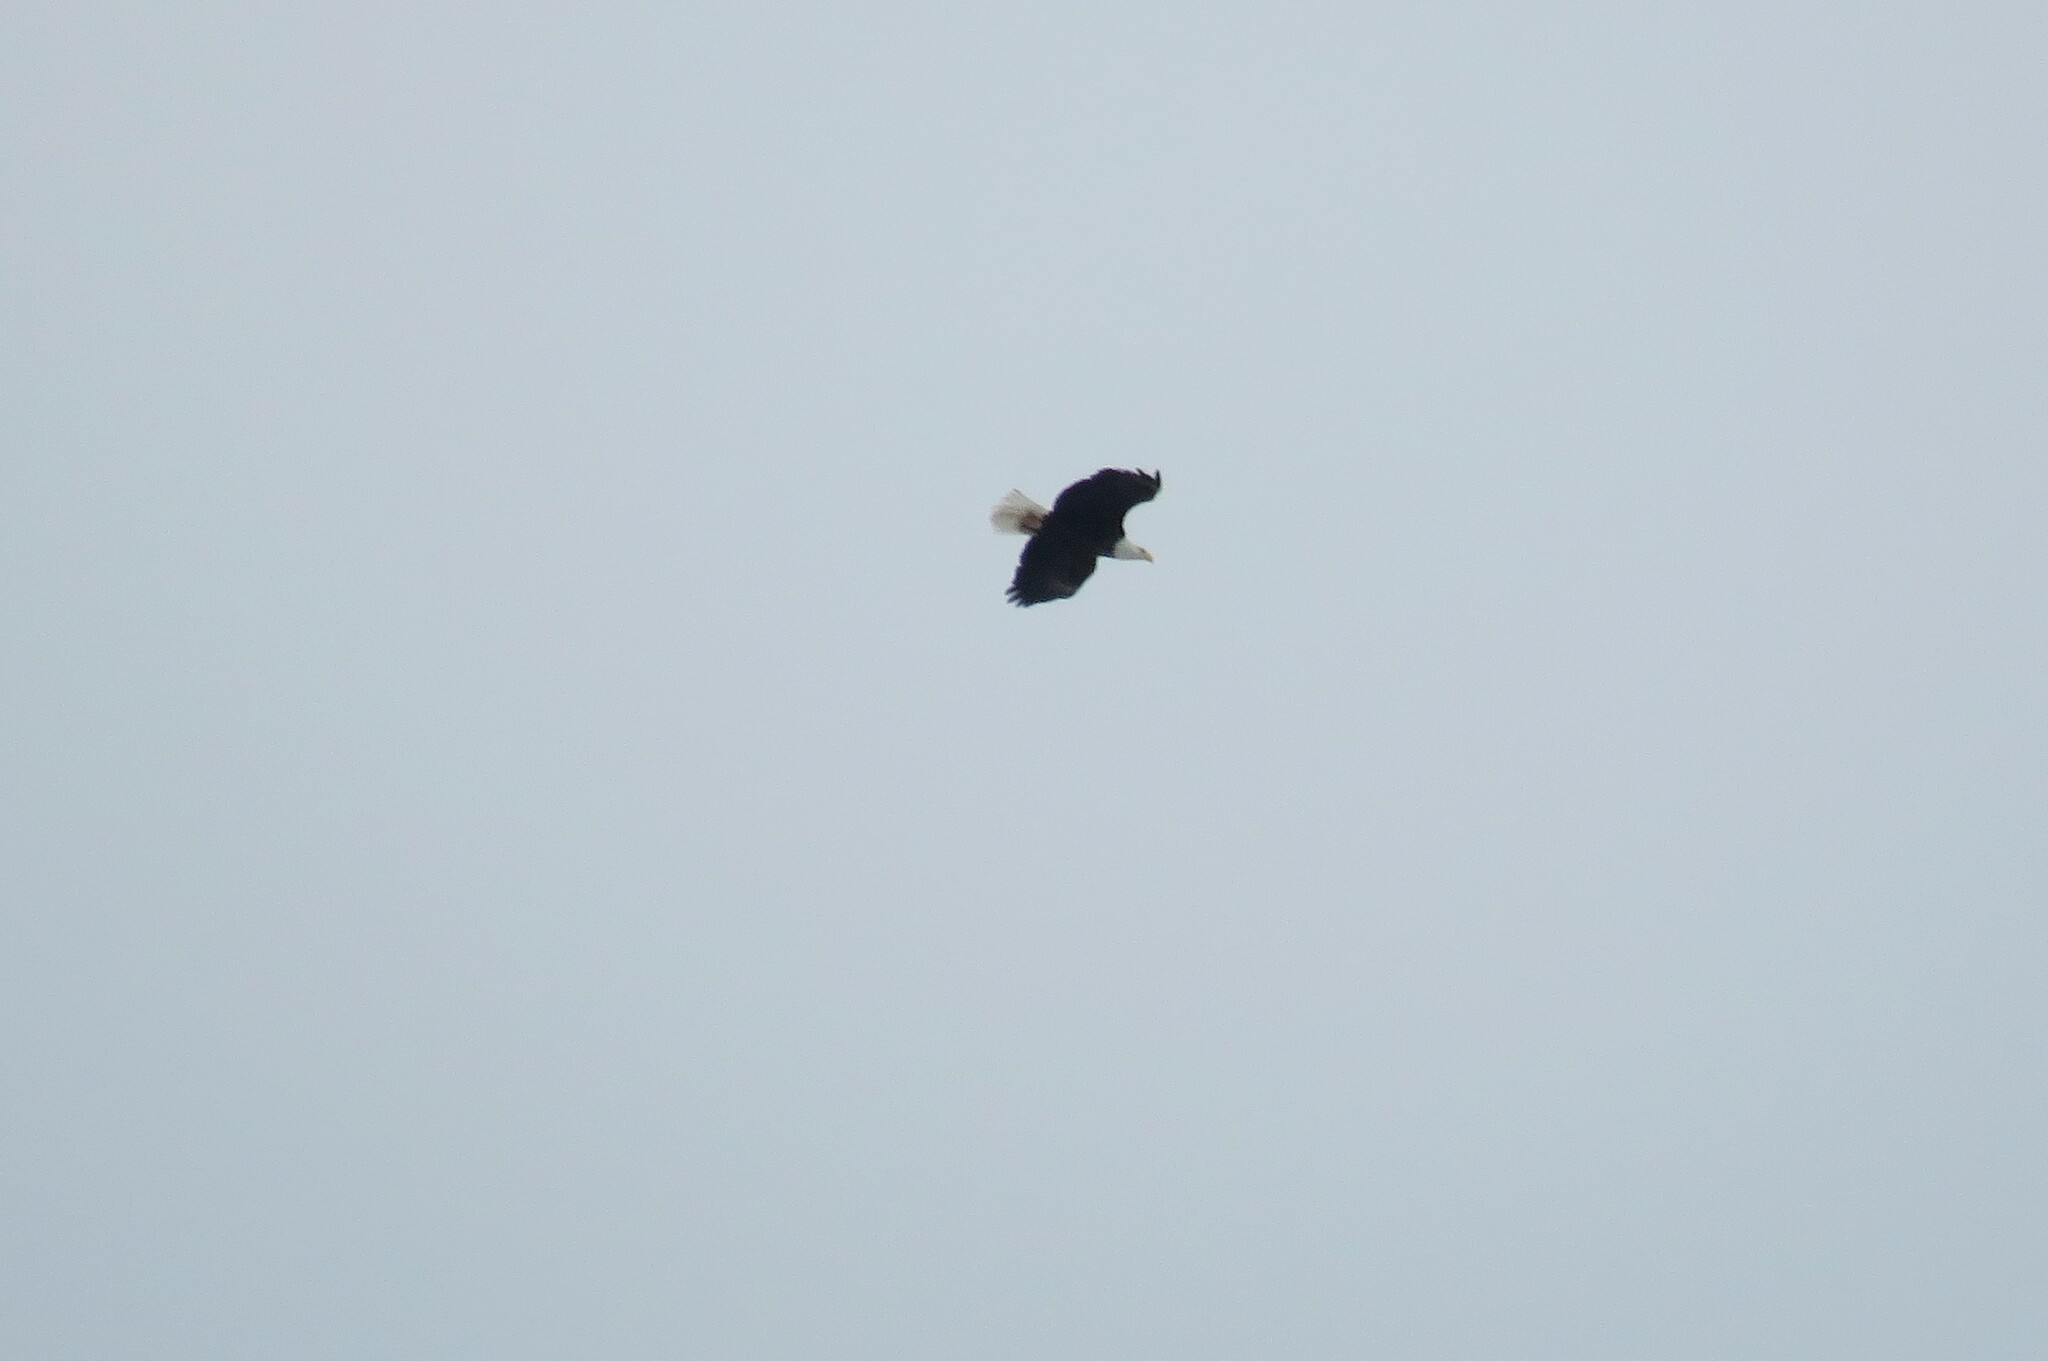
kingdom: Animalia
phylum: Chordata
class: Aves
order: Accipitriformes
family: Accipitridae
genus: Haliaeetus
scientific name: Haliaeetus leucocephalus
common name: Bald eagle
